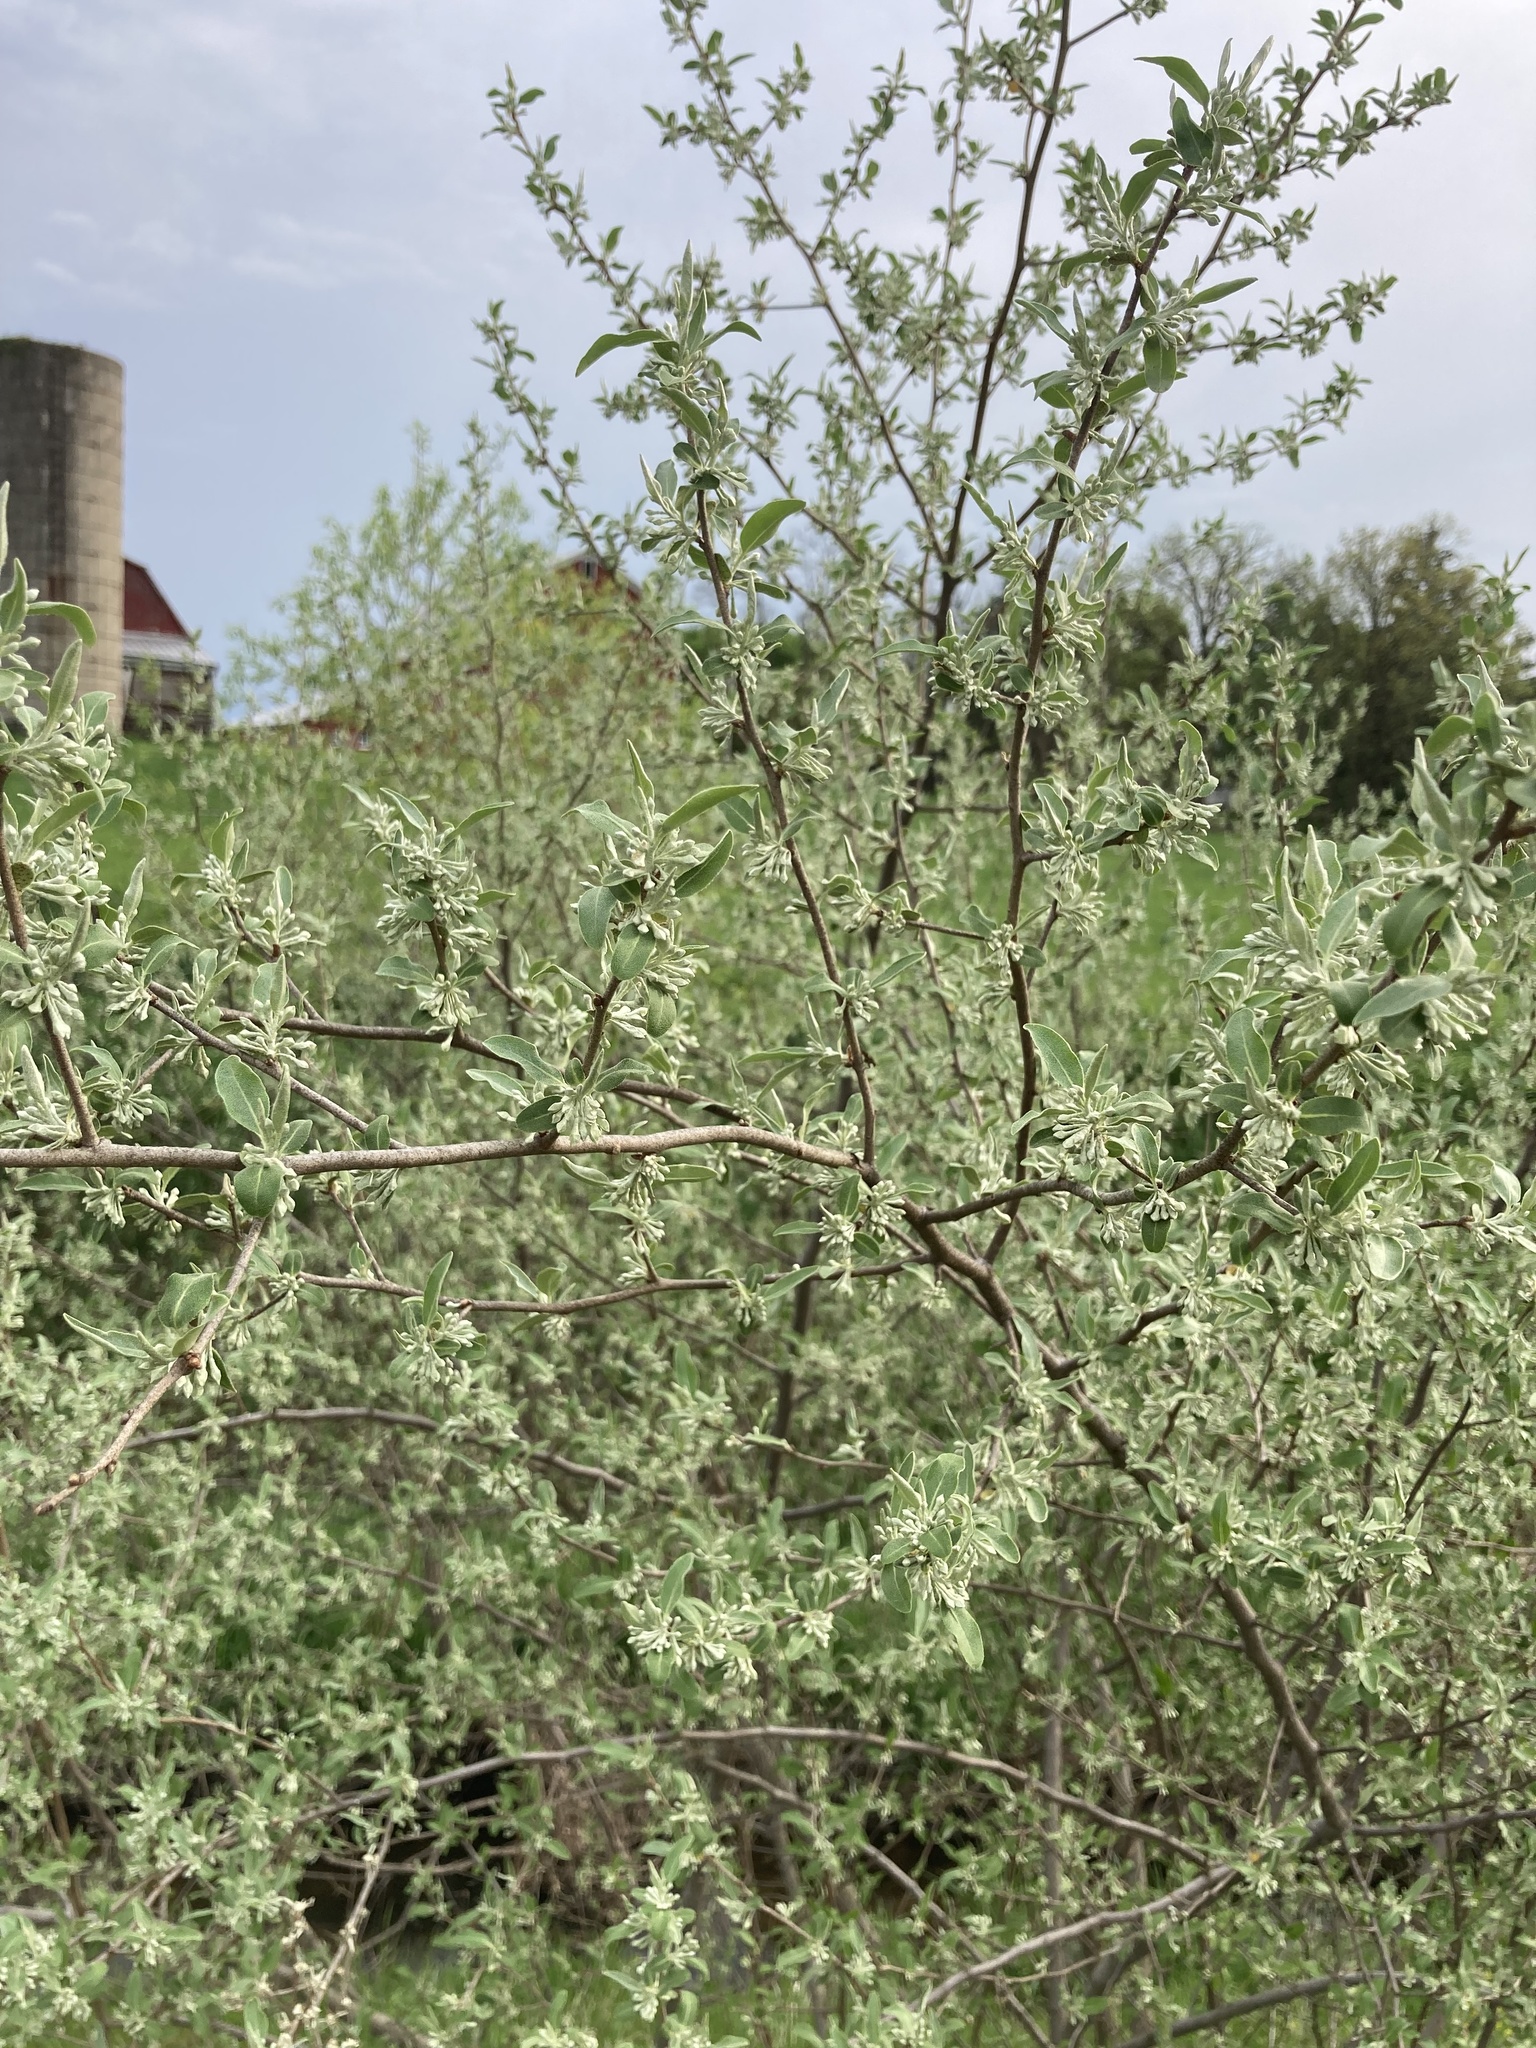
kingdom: Plantae
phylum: Tracheophyta
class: Magnoliopsida
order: Rosales
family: Elaeagnaceae
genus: Elaeagnus
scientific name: Elaeagnus umbellata
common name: Autumn olive
